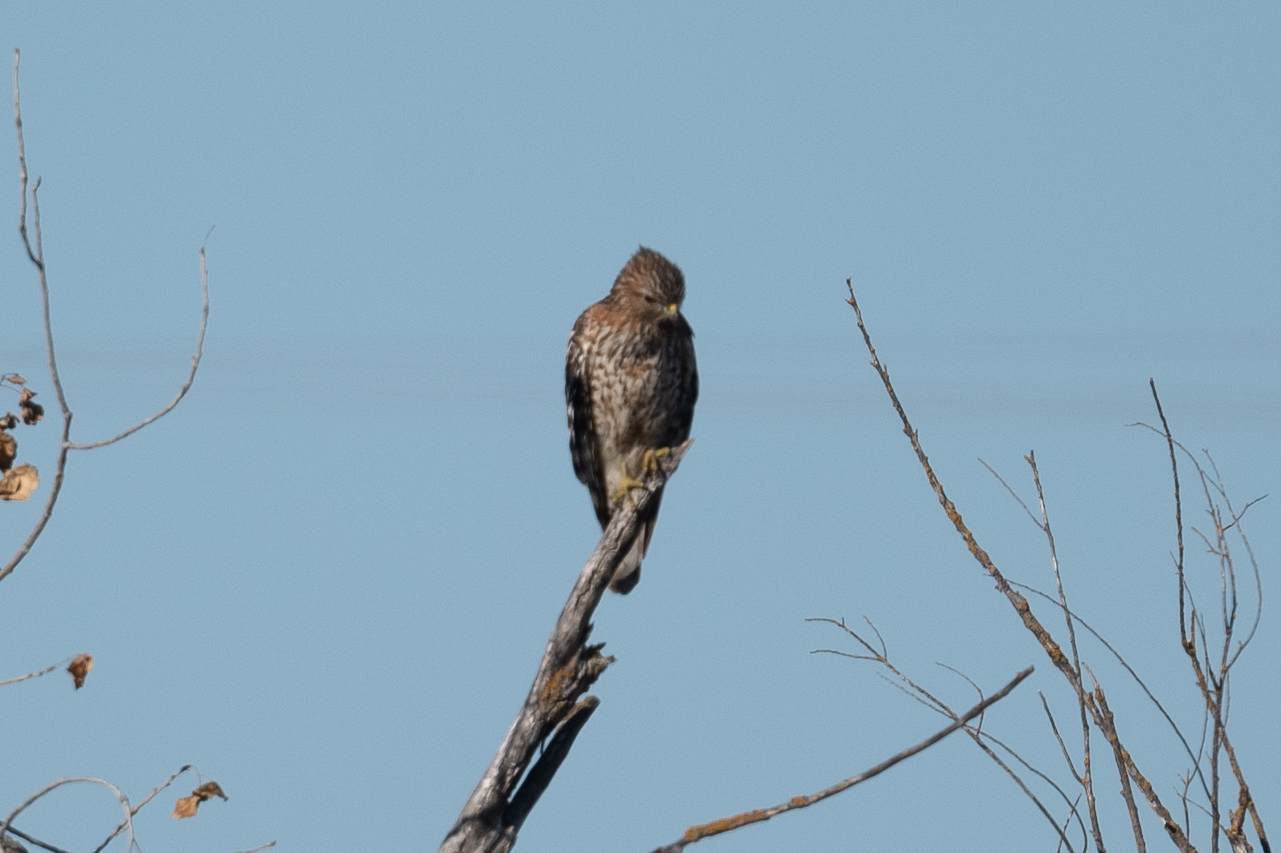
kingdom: Animalia
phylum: Chordata
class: Aves
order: Accipitriformes
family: Accipitridae
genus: Buteo
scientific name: Buteo lineatus
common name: Red-shouldered hawk
